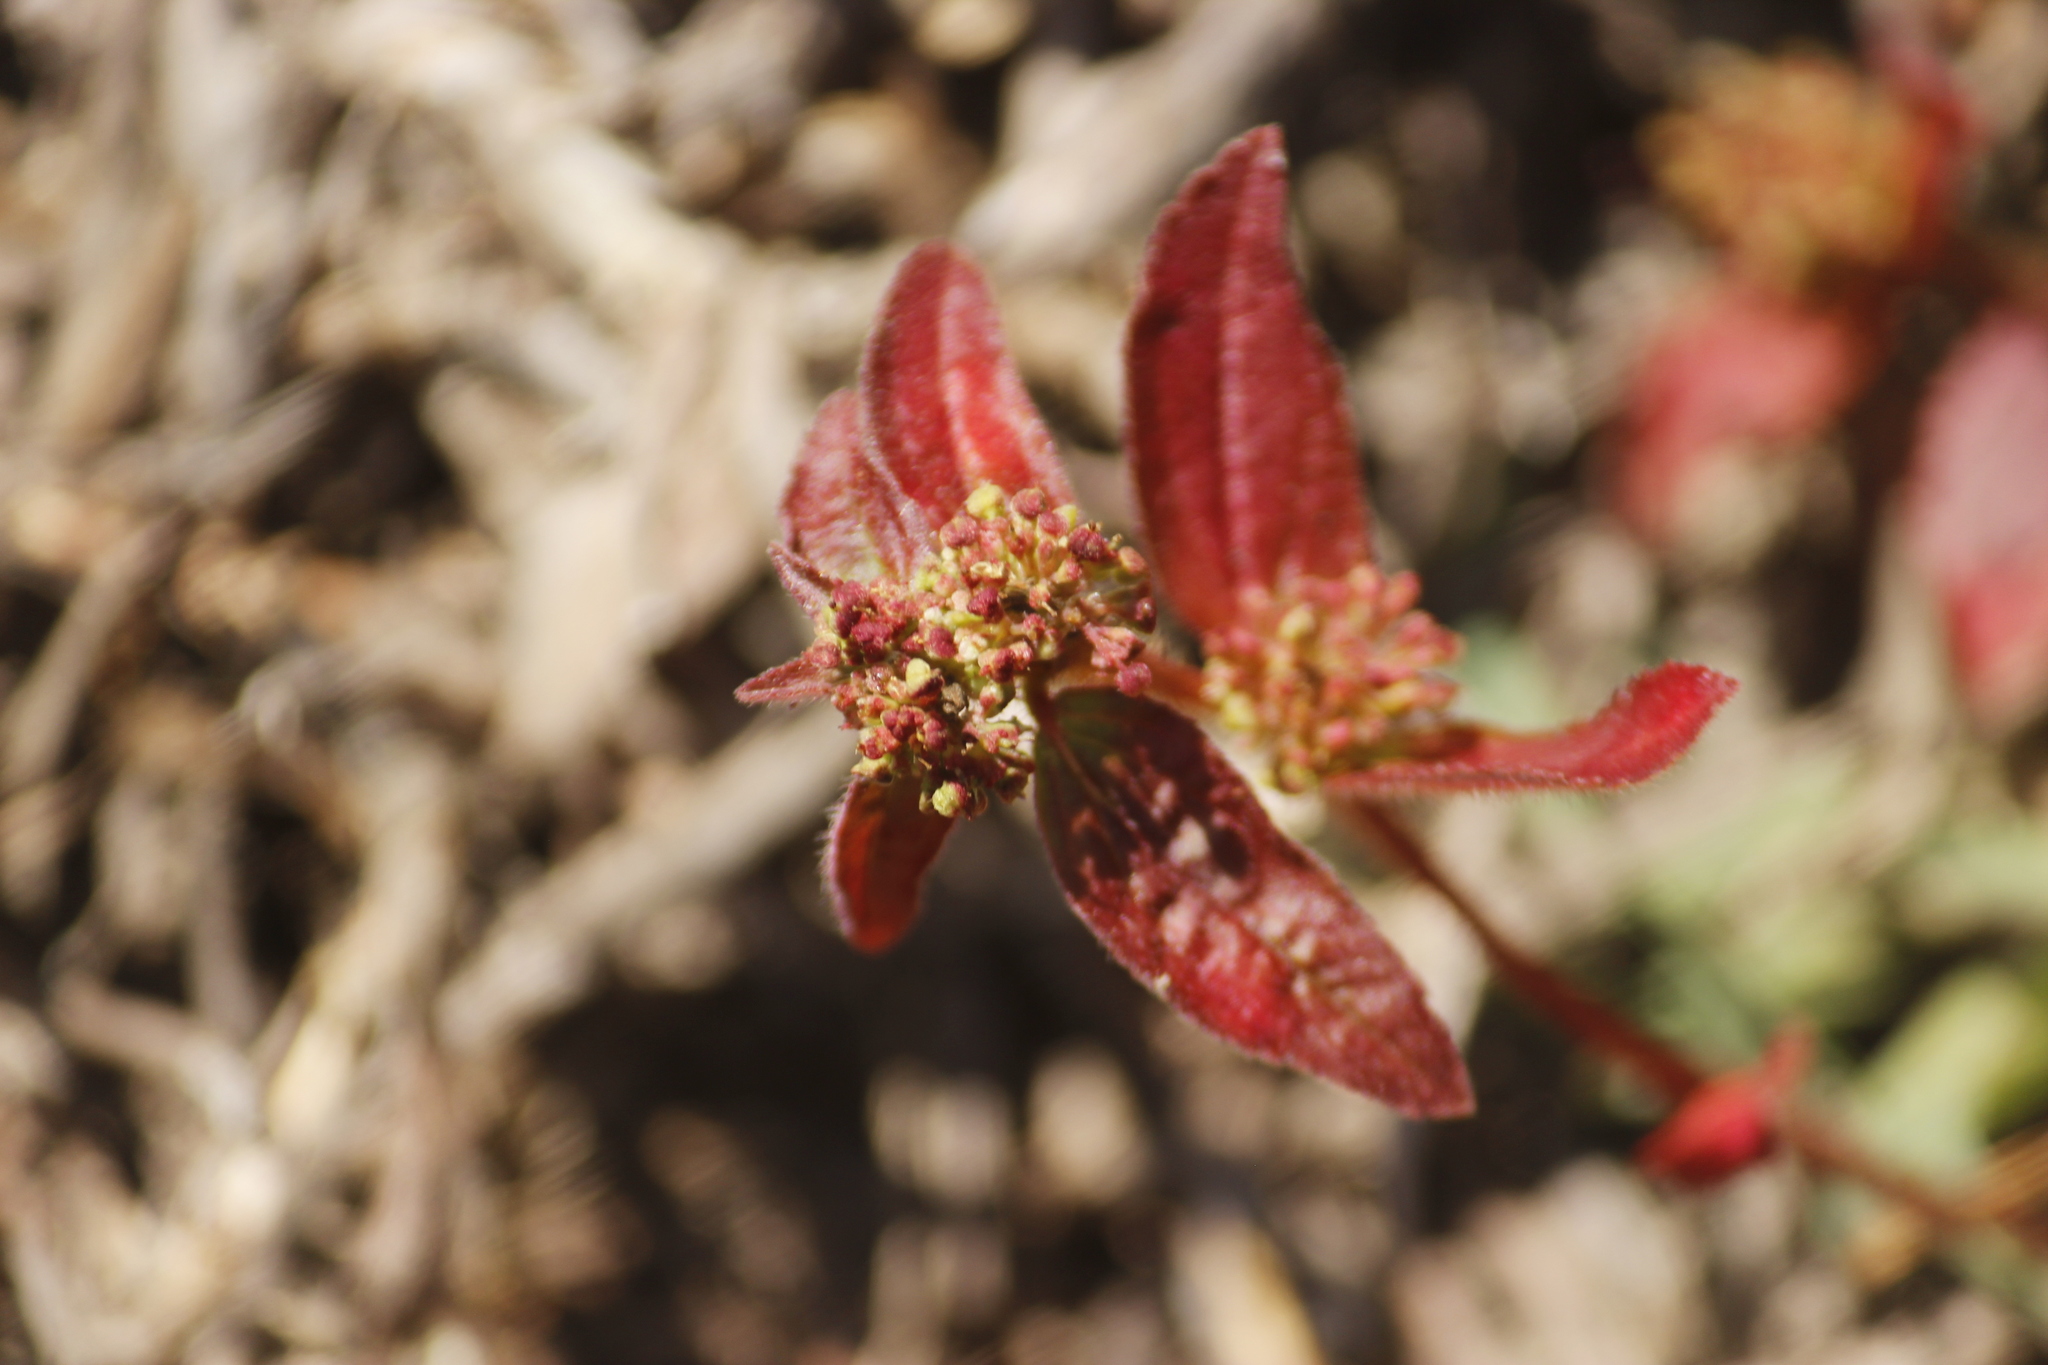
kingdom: Plantae
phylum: Tracheophyta
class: Magnoliopsida
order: Malpighiales
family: Euphorbiaceae
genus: Euphorbia
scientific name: Euphorbia hirta
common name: Pillpod sandmat
